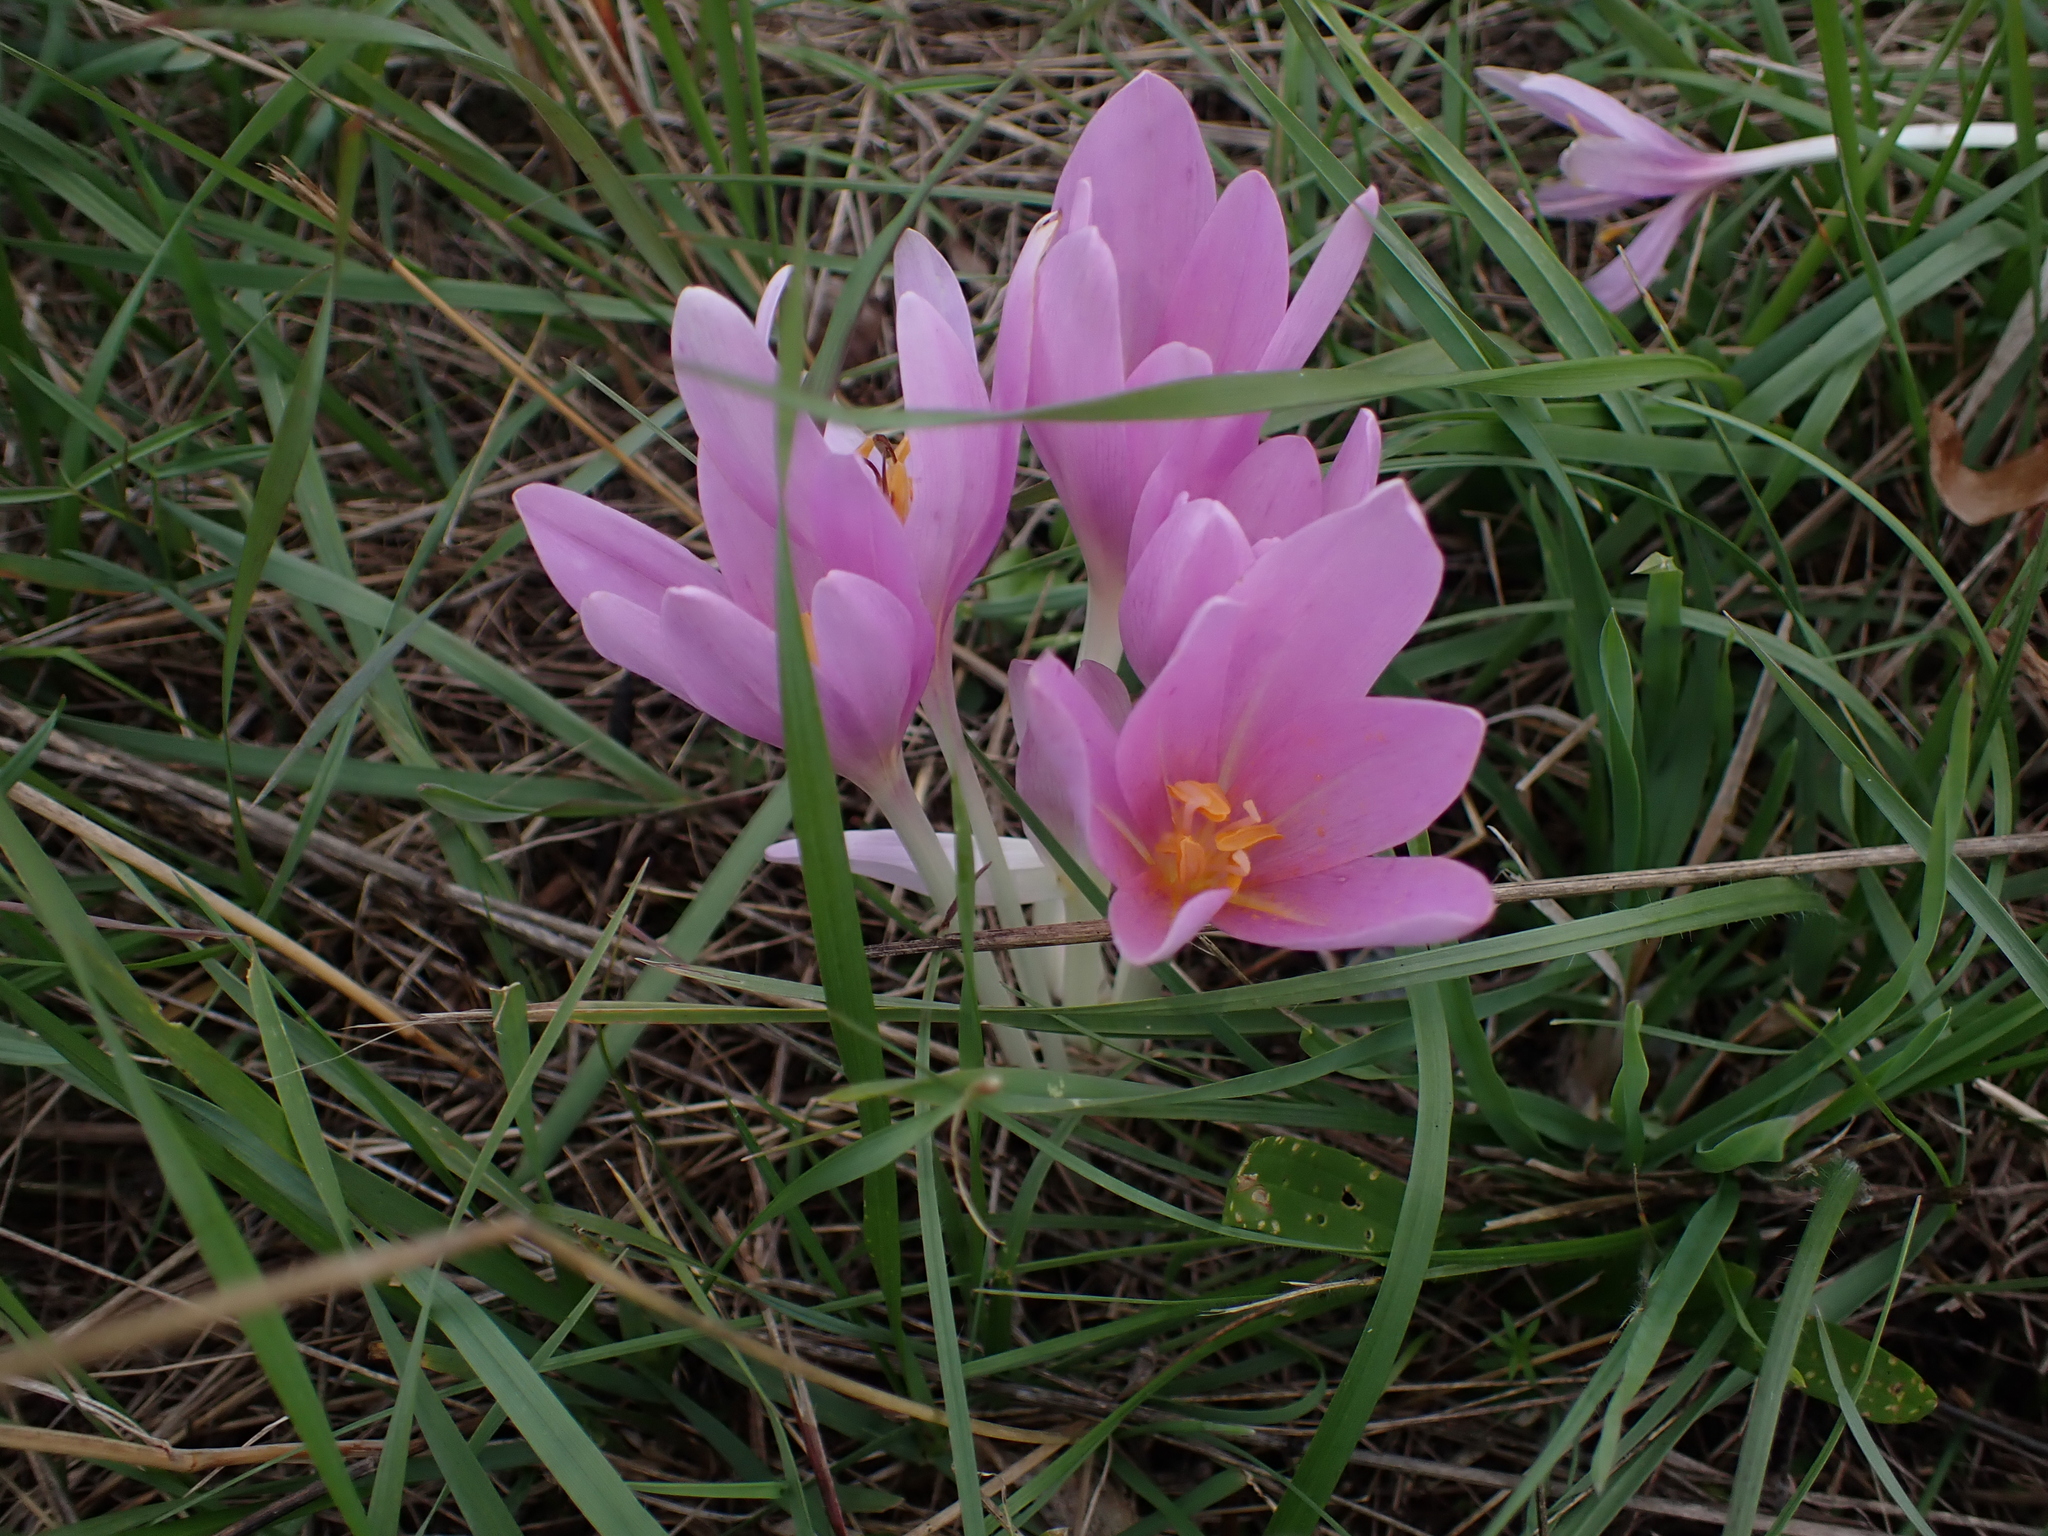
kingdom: Plantae
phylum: Tracheophyta
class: Liliopsida
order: Liliales
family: Colchicaceae
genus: Colchicum
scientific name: Colchicum autumnale
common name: Autumn crocus
